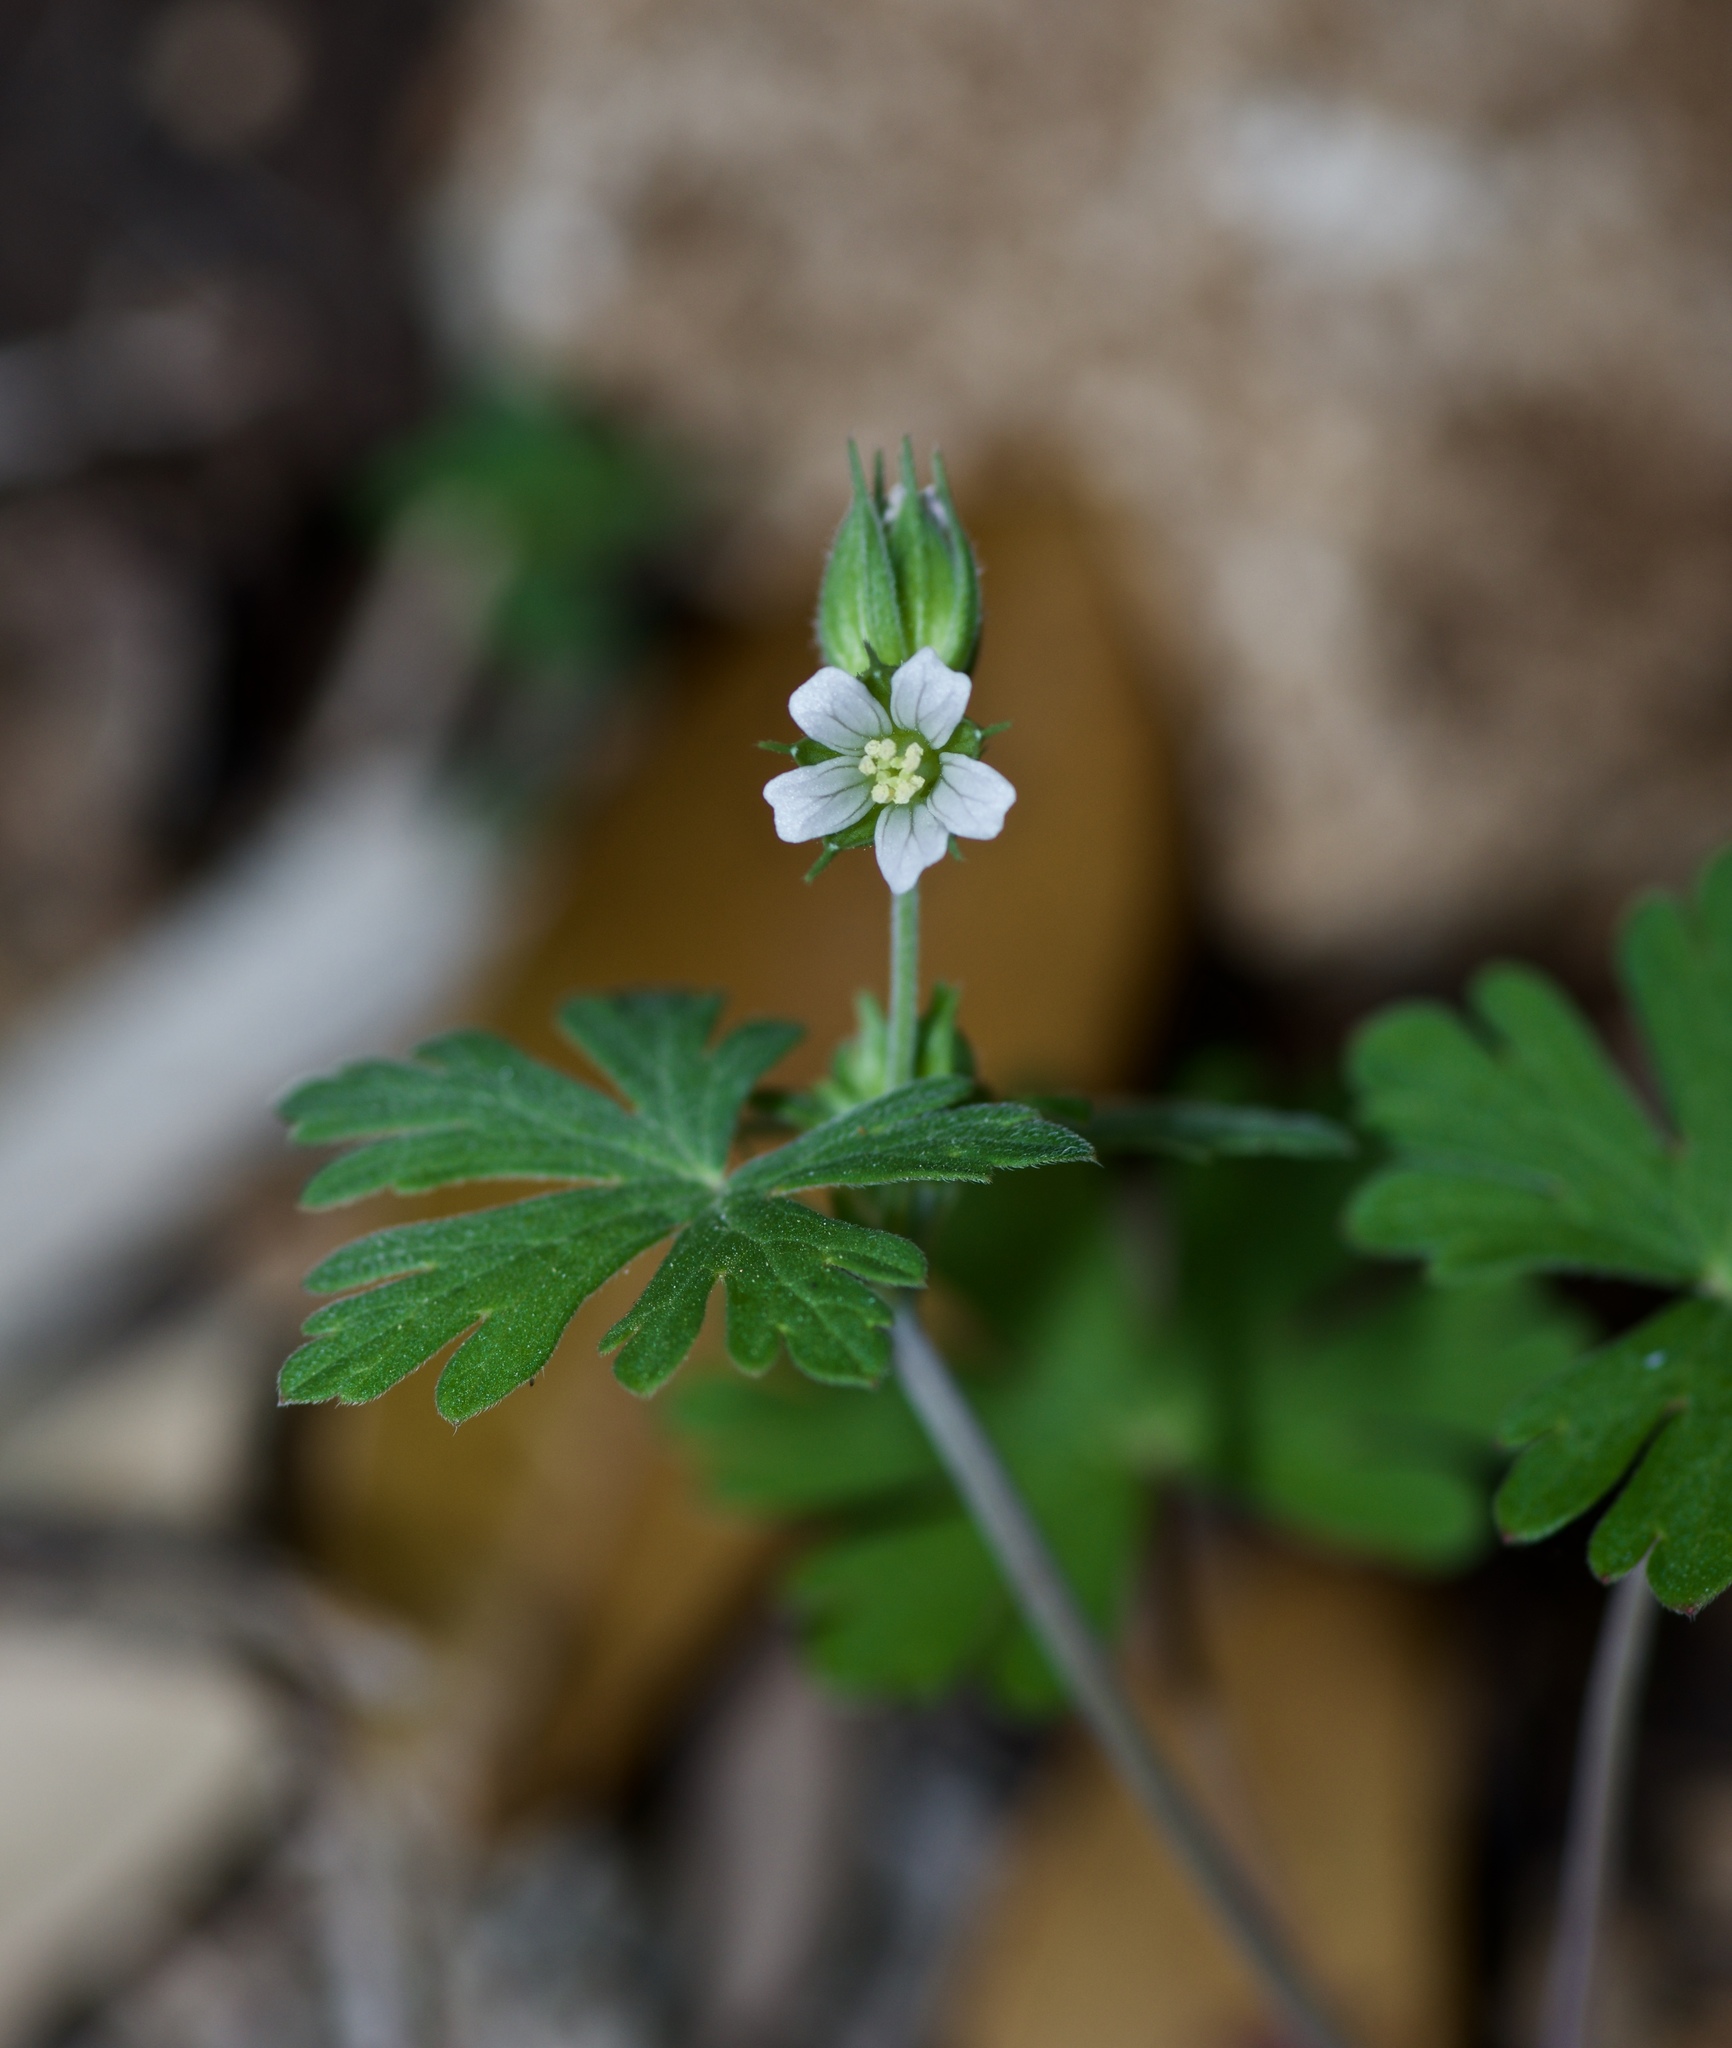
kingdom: Plantae
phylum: Tracheophyta
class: Magnoliopsida
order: Geraniales
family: Geraniaceae
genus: Geranium
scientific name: Geranium carolinianum
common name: Carolina crane's-bill
